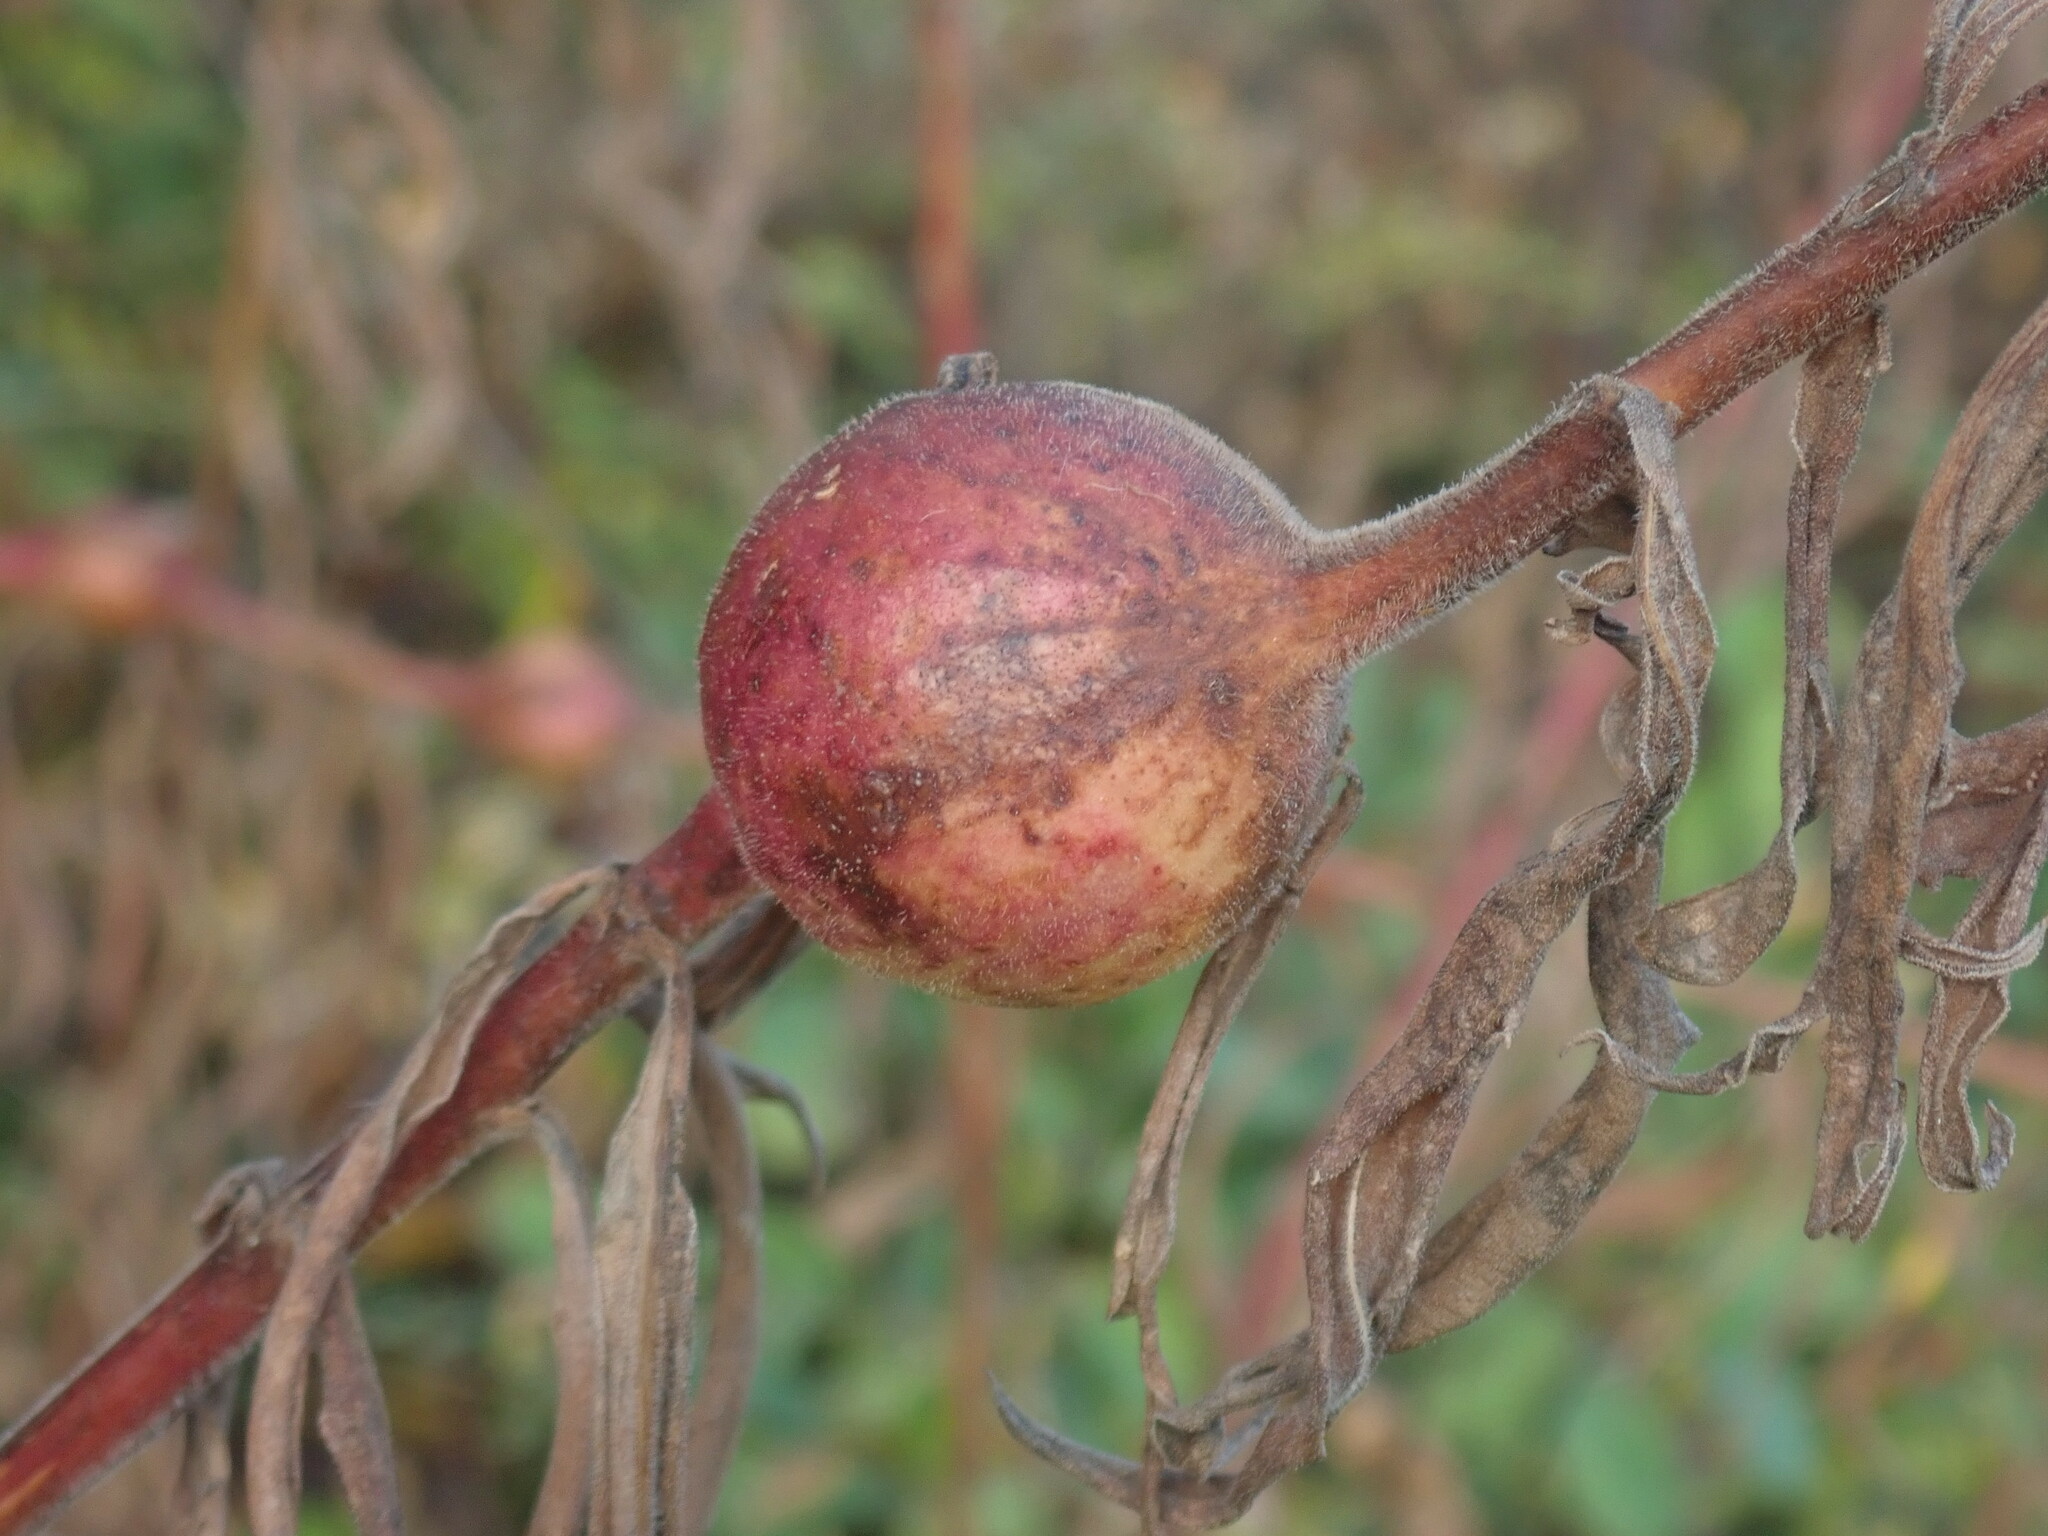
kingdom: Animalia
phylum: Arthropoda
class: Insecta
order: Diptera
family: Tephritidae
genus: Eurosta
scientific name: Eurosta solidaginis
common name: Goldenrod gall fly
